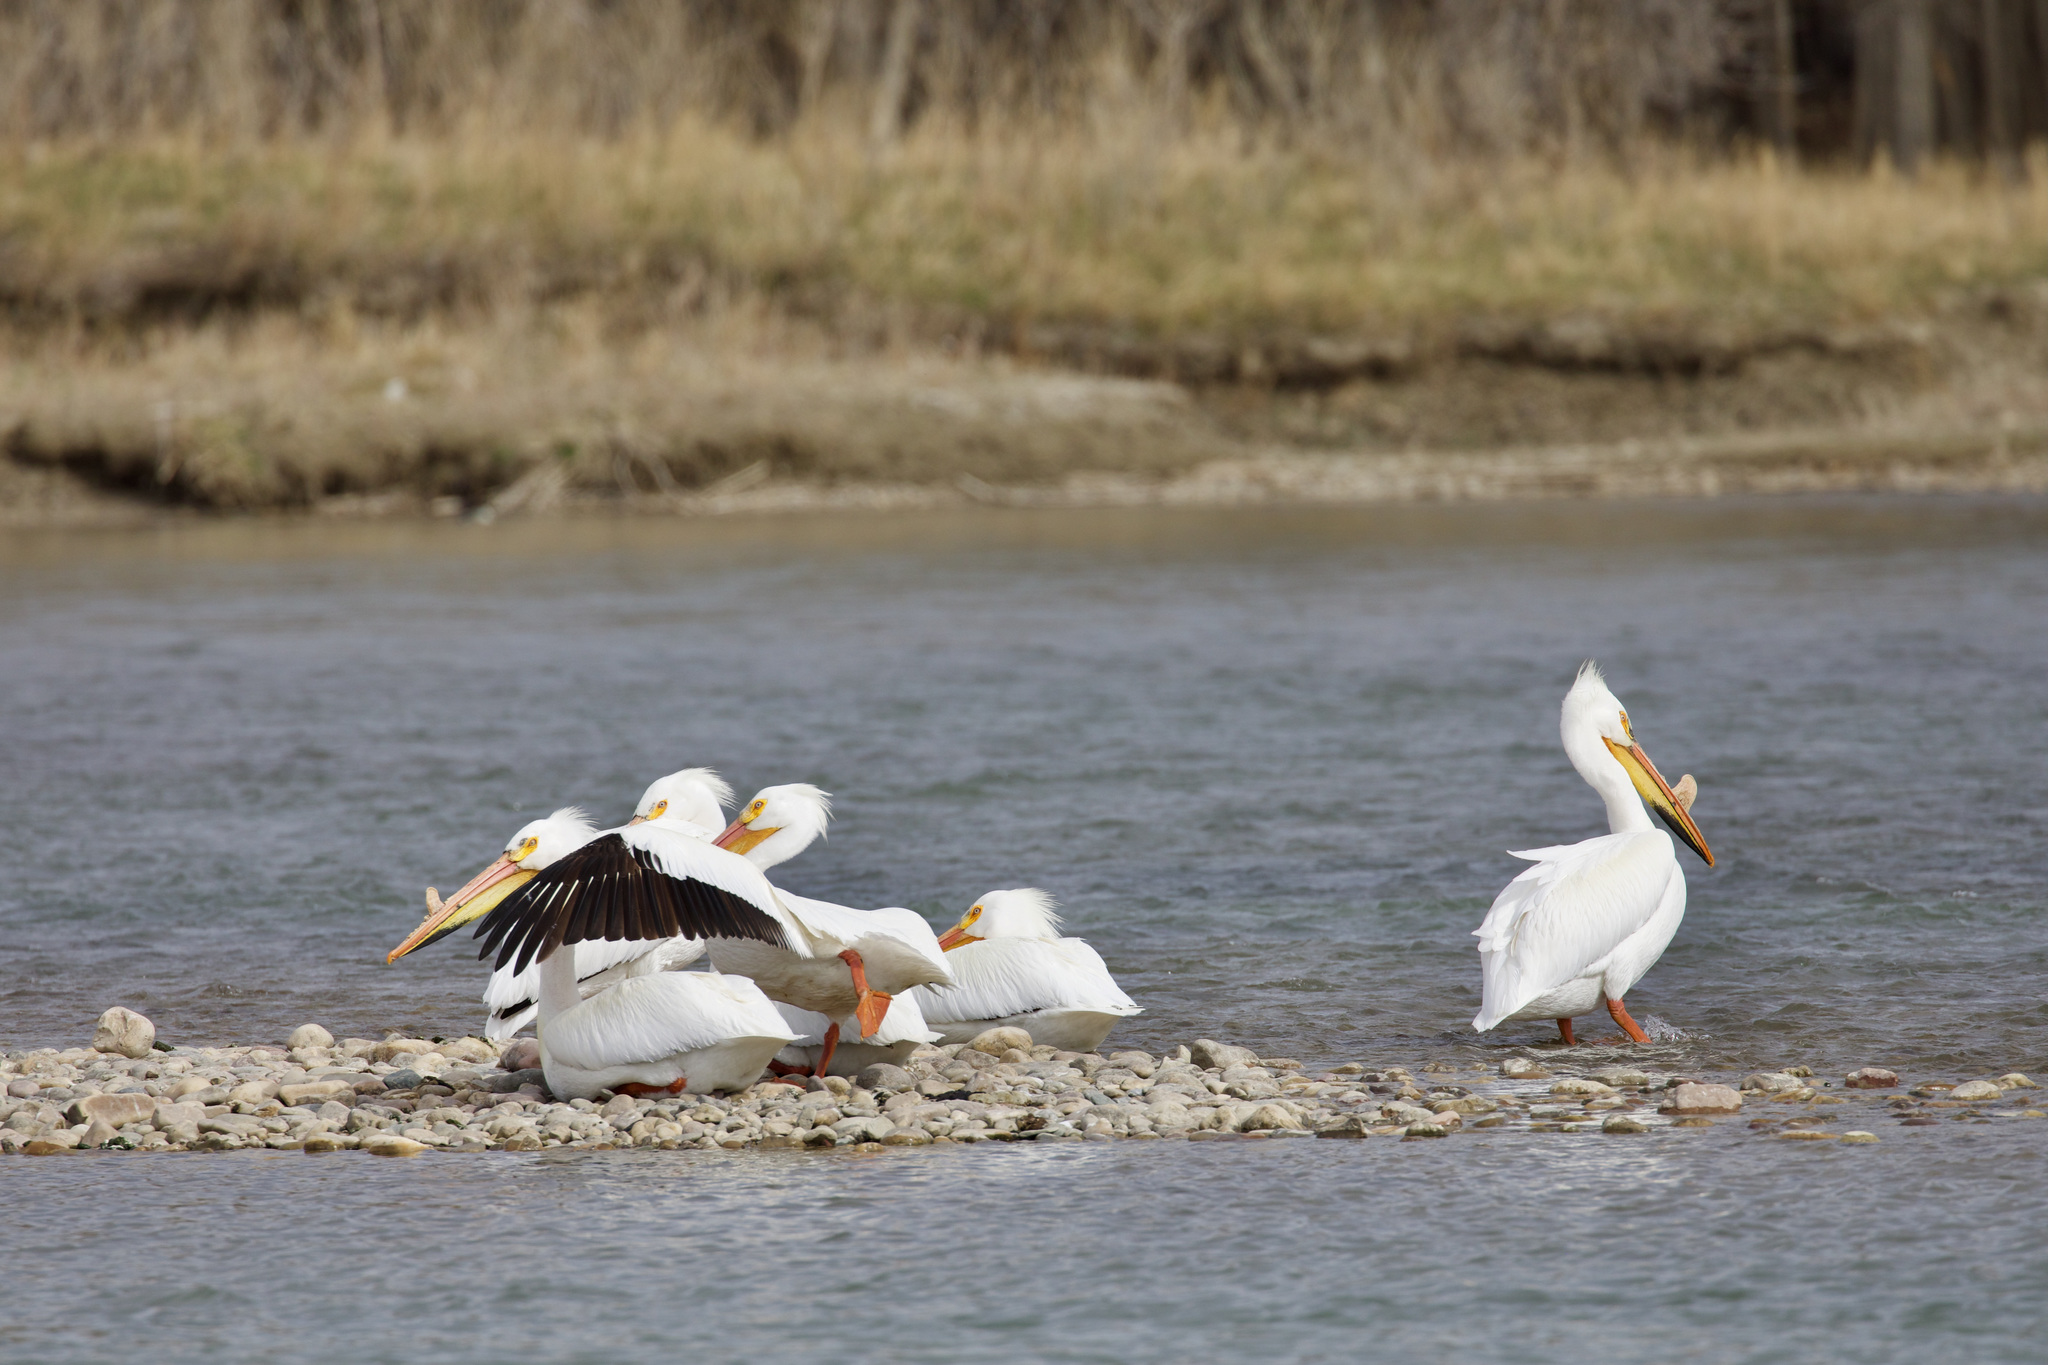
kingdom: Animalia
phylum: Chordata
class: Aves
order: Pelecaniformes
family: Pelecanidae
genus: Pelecanus
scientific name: Pelecanus erythrorhynchos
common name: American white pelican
